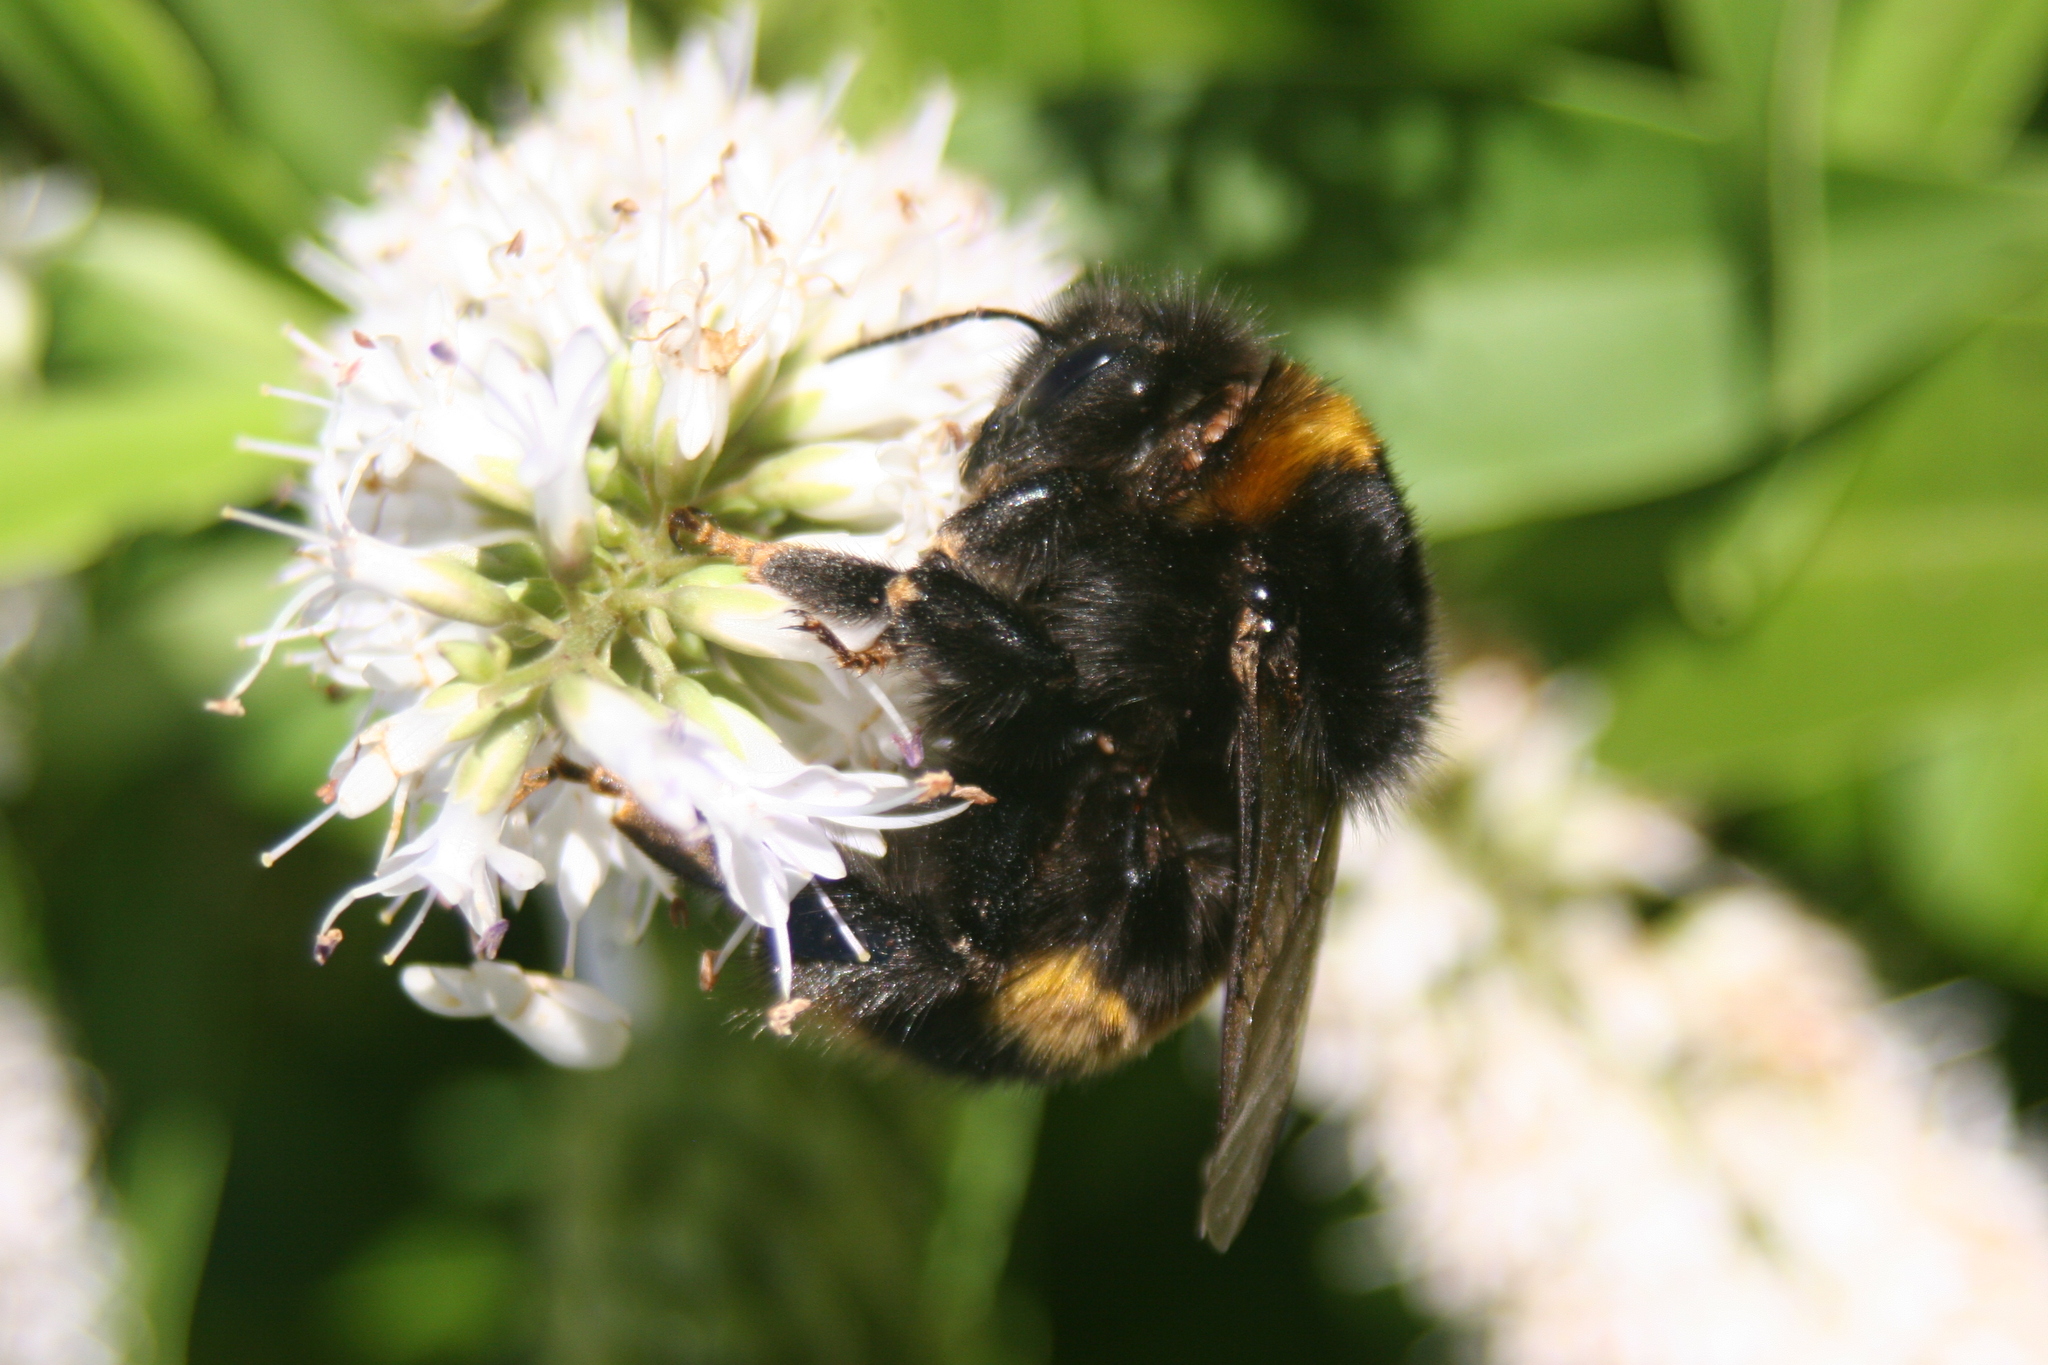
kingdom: Animalia
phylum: Arthropoda
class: Insecta
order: Hymenoptera
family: Apidae
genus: Bombus
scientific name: Bombus terrestris
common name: Buff-tailed bumblebee
